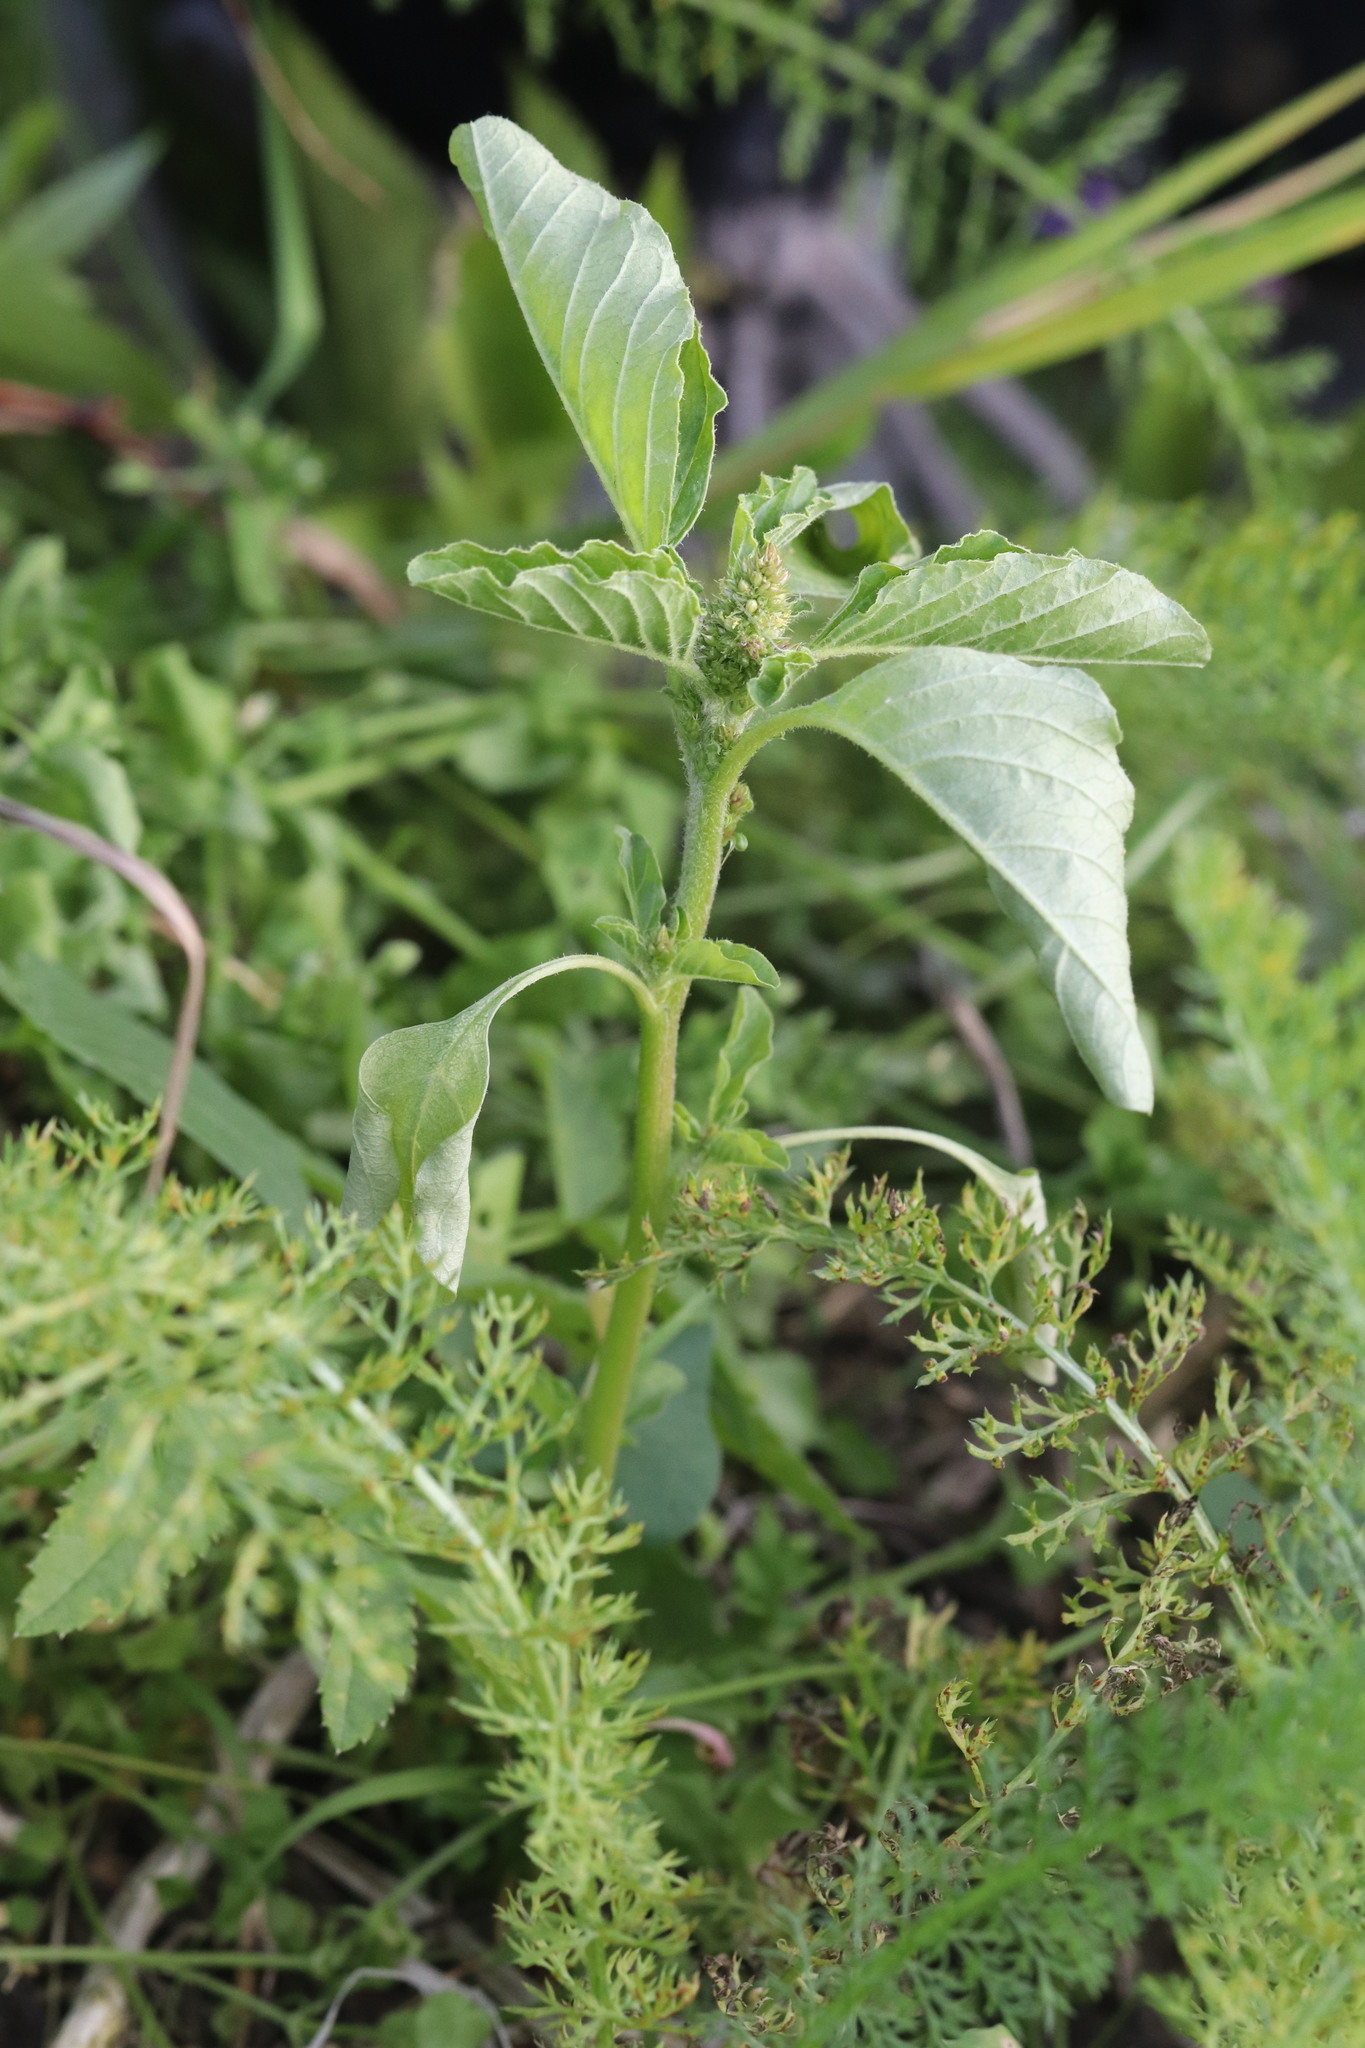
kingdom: Plantae
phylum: Tracheophyta
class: Magnoliopsida
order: Caryophyllales
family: Amaranthaceae
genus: Amaranthus
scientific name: Amaranthus retroflexus
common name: Redroot amaranth
